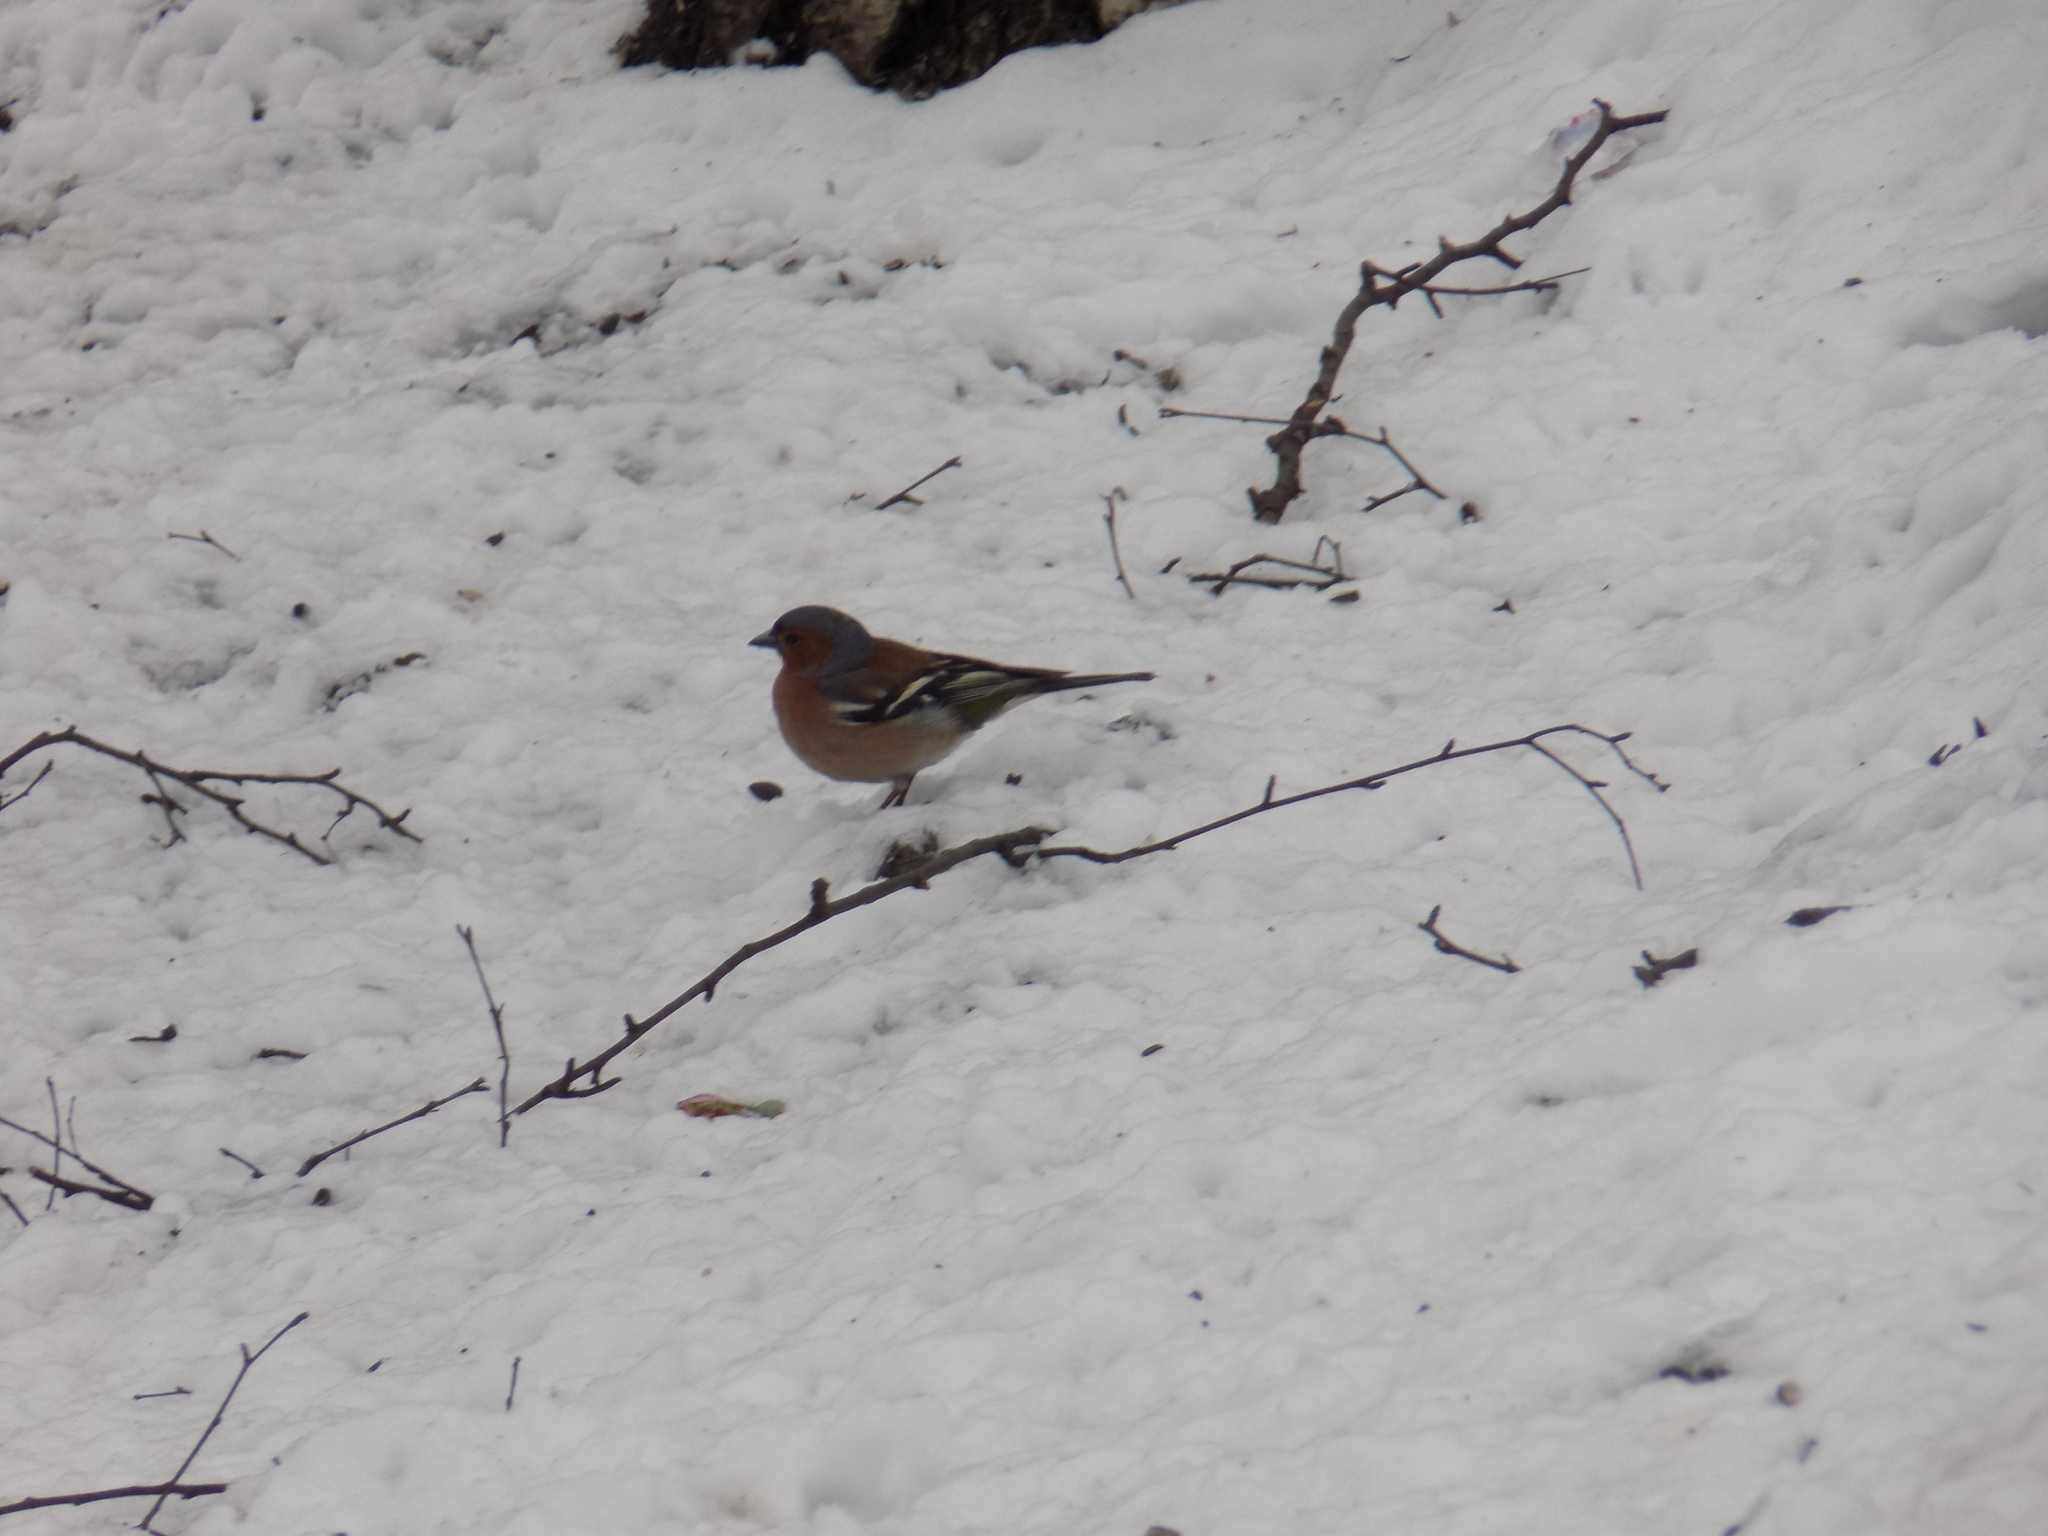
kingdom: Animalia
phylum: Chordata
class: Aves
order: Passeriformes
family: Fringillidae
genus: Fringilla
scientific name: Fringilla coelebs
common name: Common chaffinch
